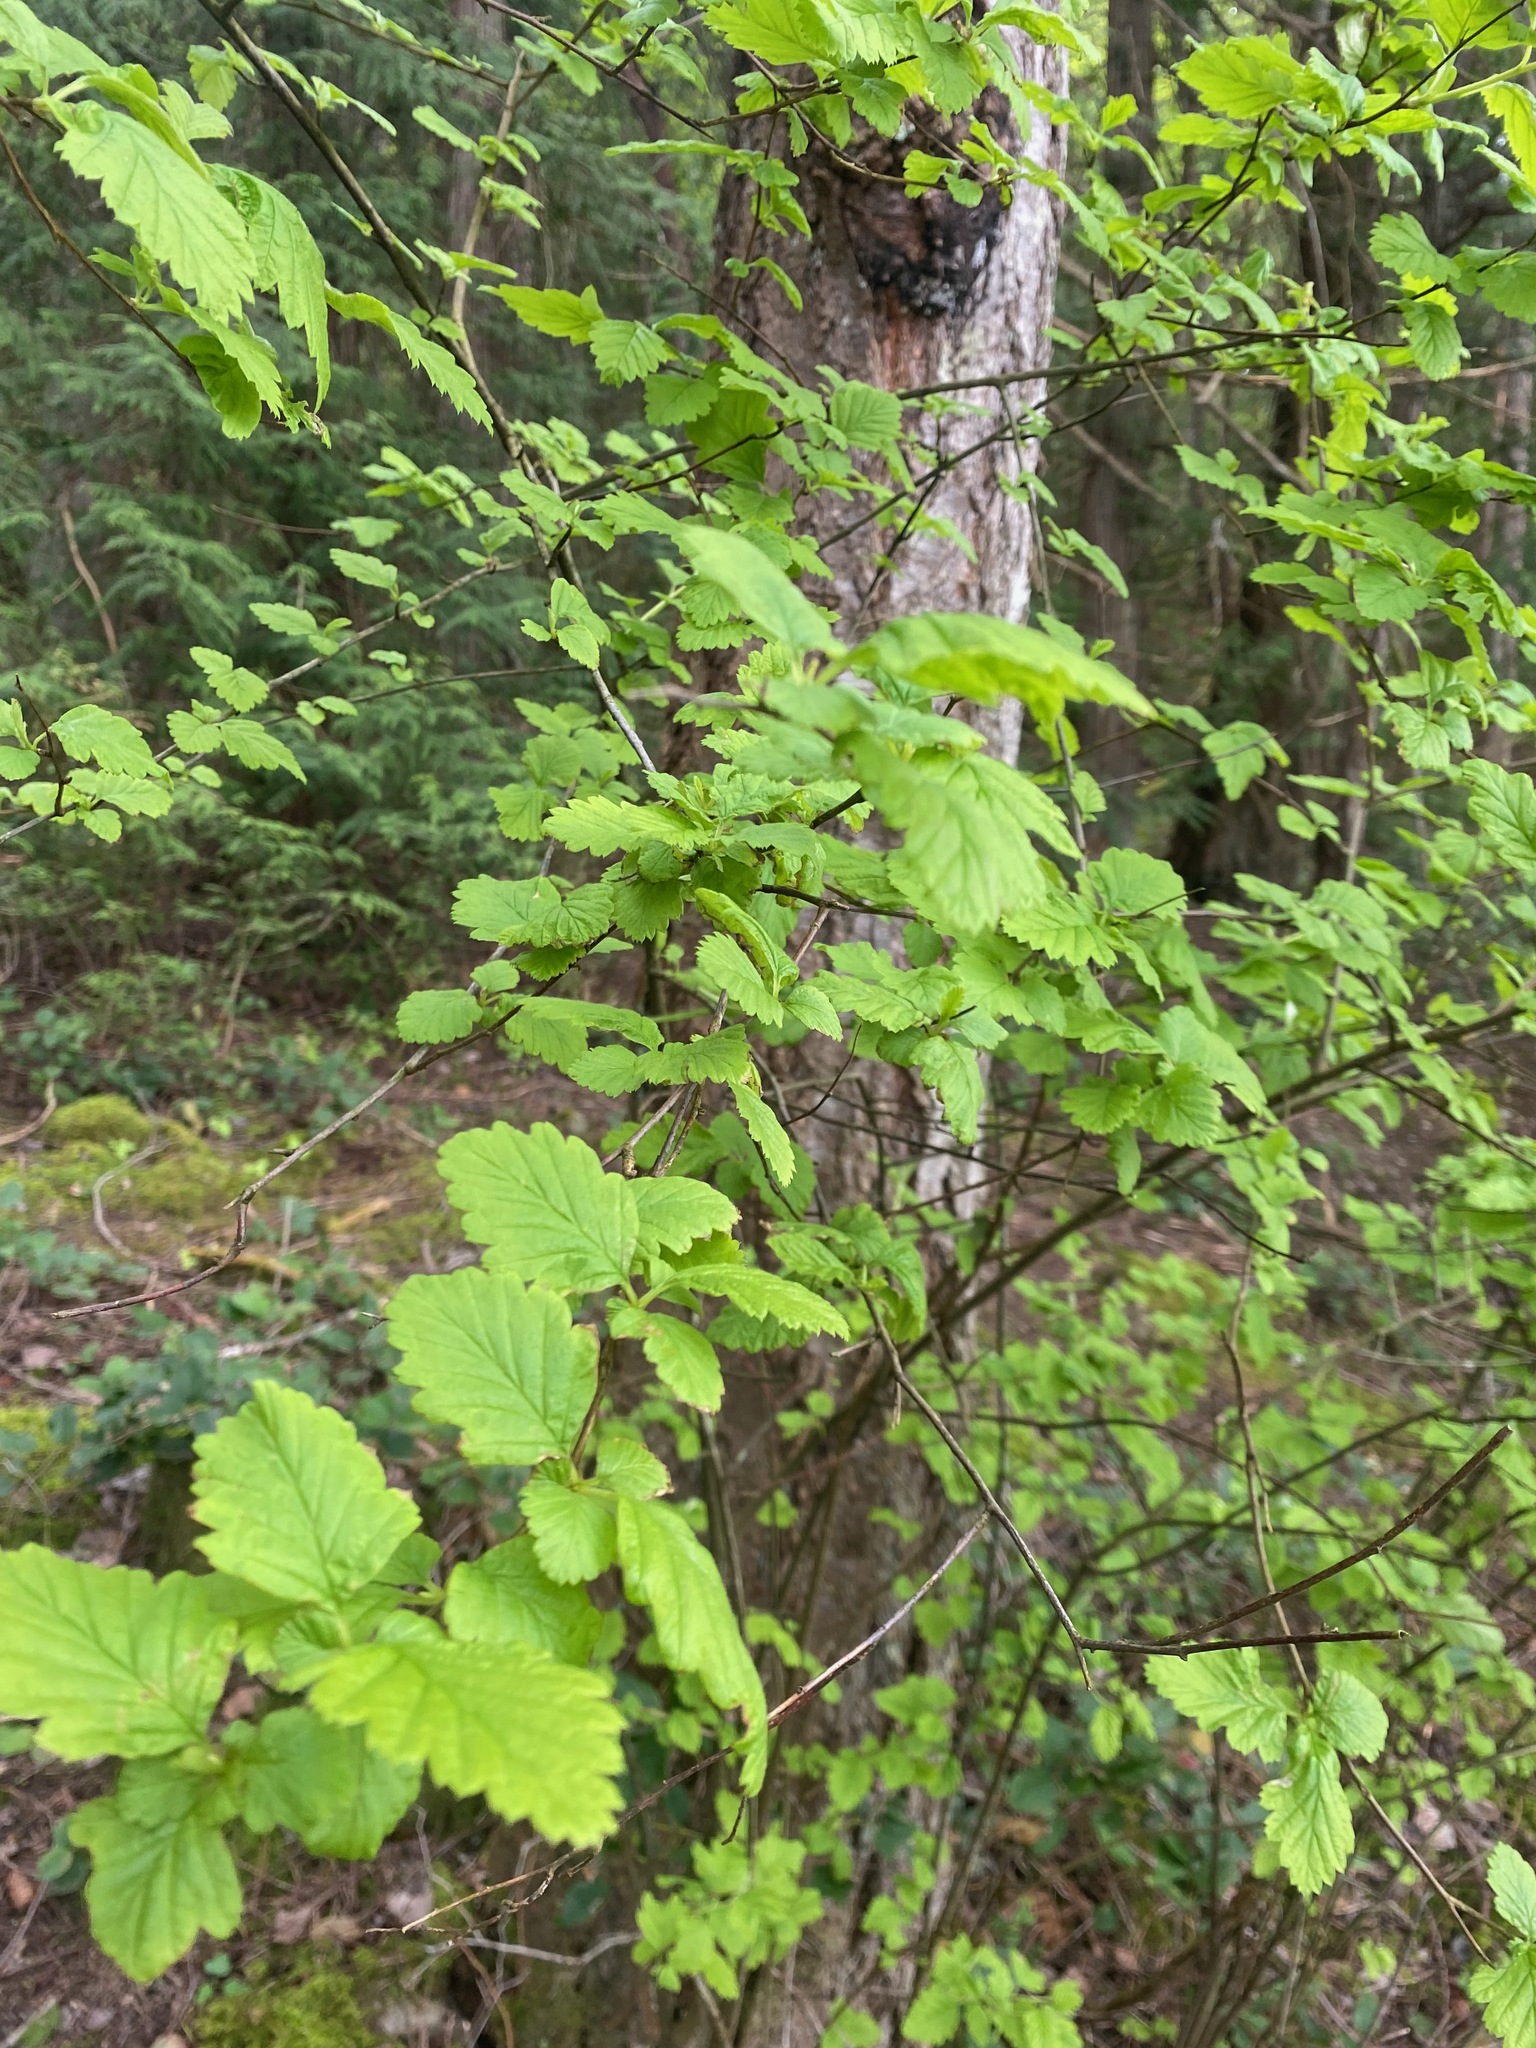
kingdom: Plantae
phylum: Tracheophyta
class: Magnoliopsida
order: Rosales
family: Rosaceae
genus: Holodiscus
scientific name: Holodiscus discolor
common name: Oceanspray
